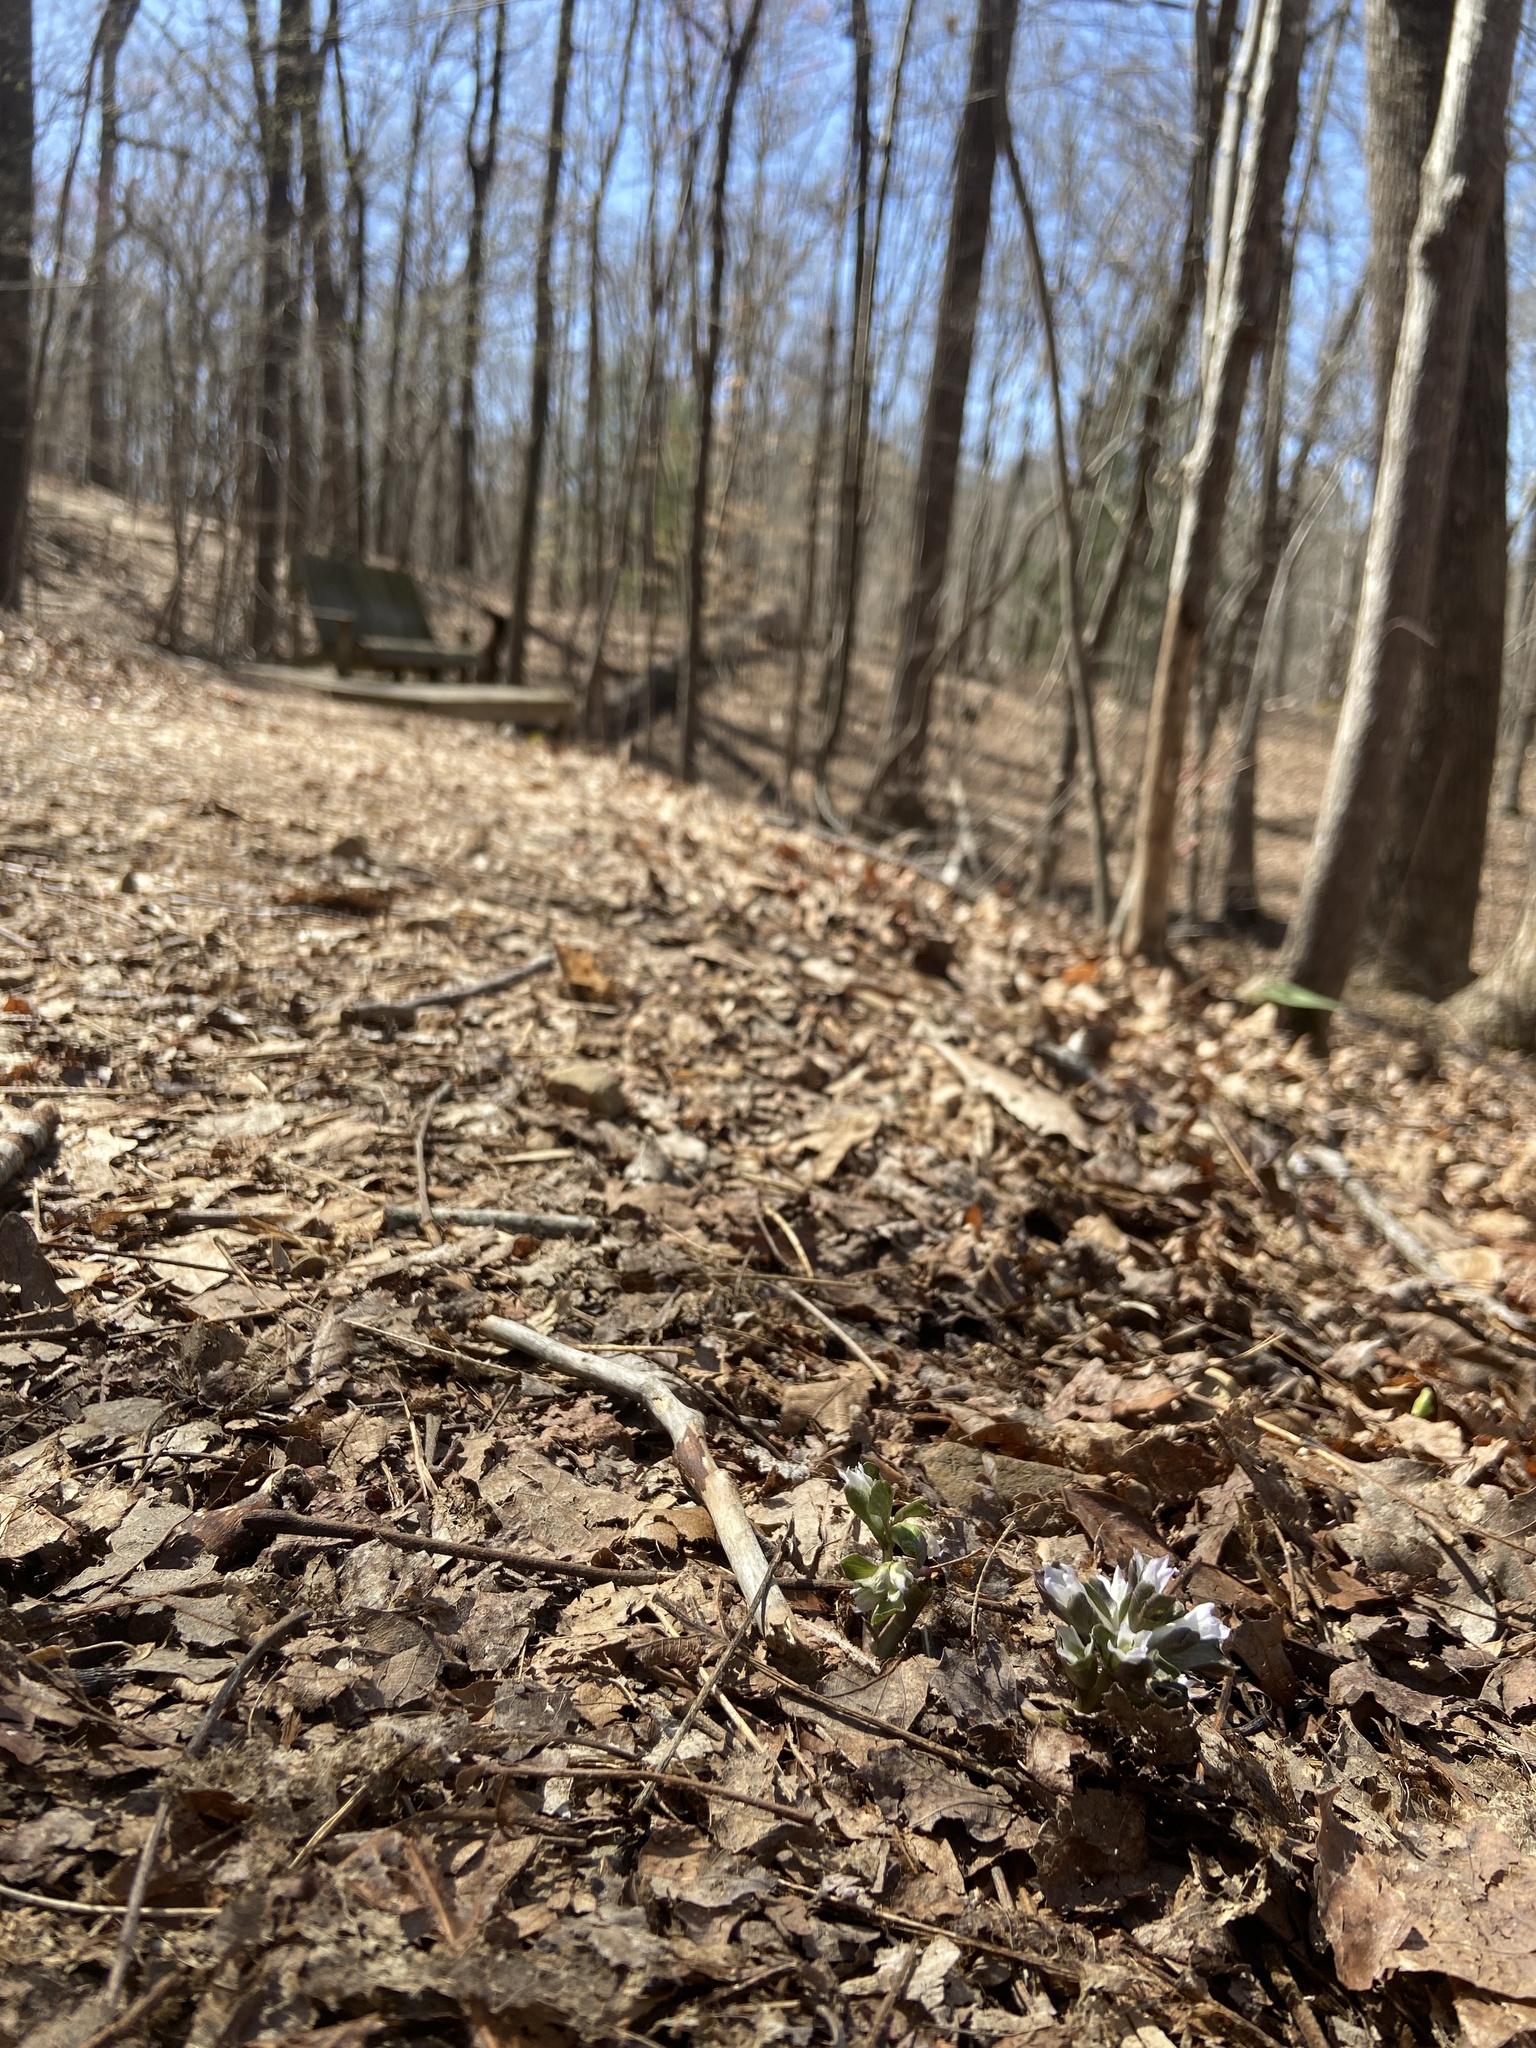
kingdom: Plantae
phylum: Tracheophyta
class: Magnoliopsida
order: Gentianales
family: Gentianaceae
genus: Obolaria
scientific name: Obolaria virginica
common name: Pennywort
